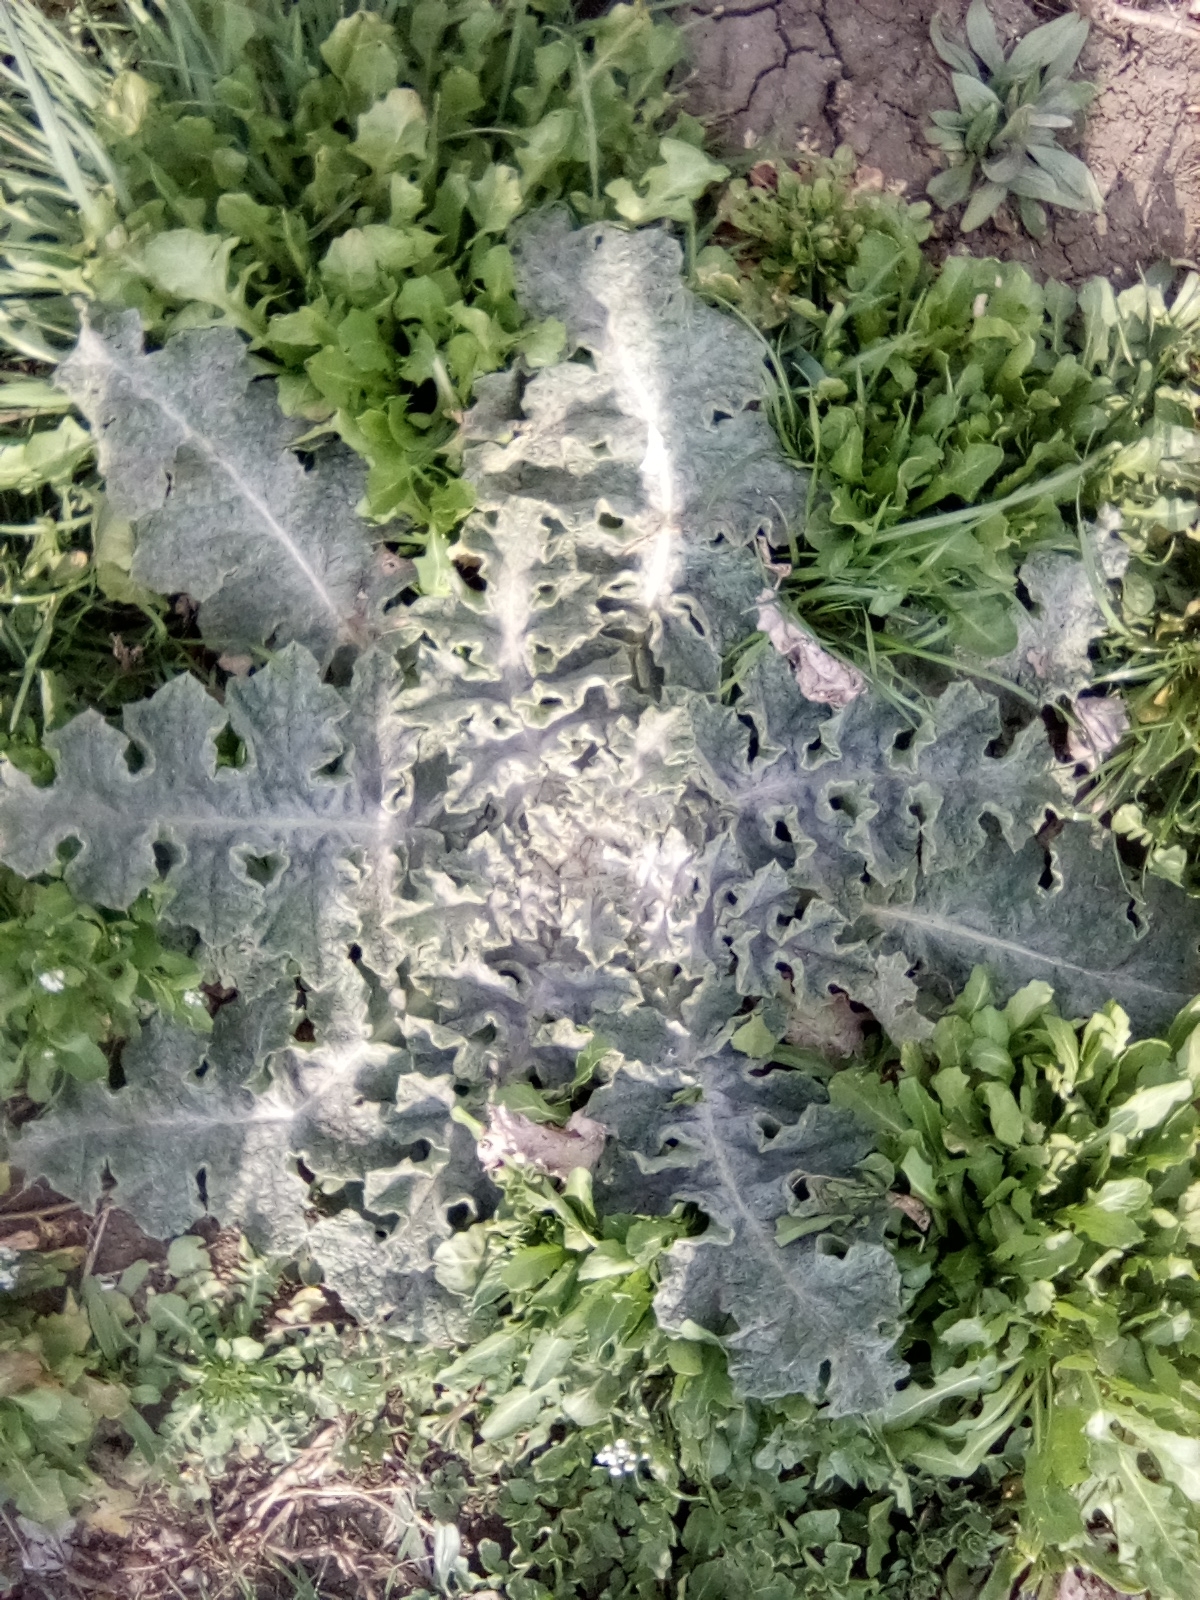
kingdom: Plantae
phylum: Tracheophyta
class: Magnoliopsida
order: Lamiales
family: Scrophulariaceae
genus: Verbascum
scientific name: Verbascum sinuatum
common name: Wavyleaf mullein
